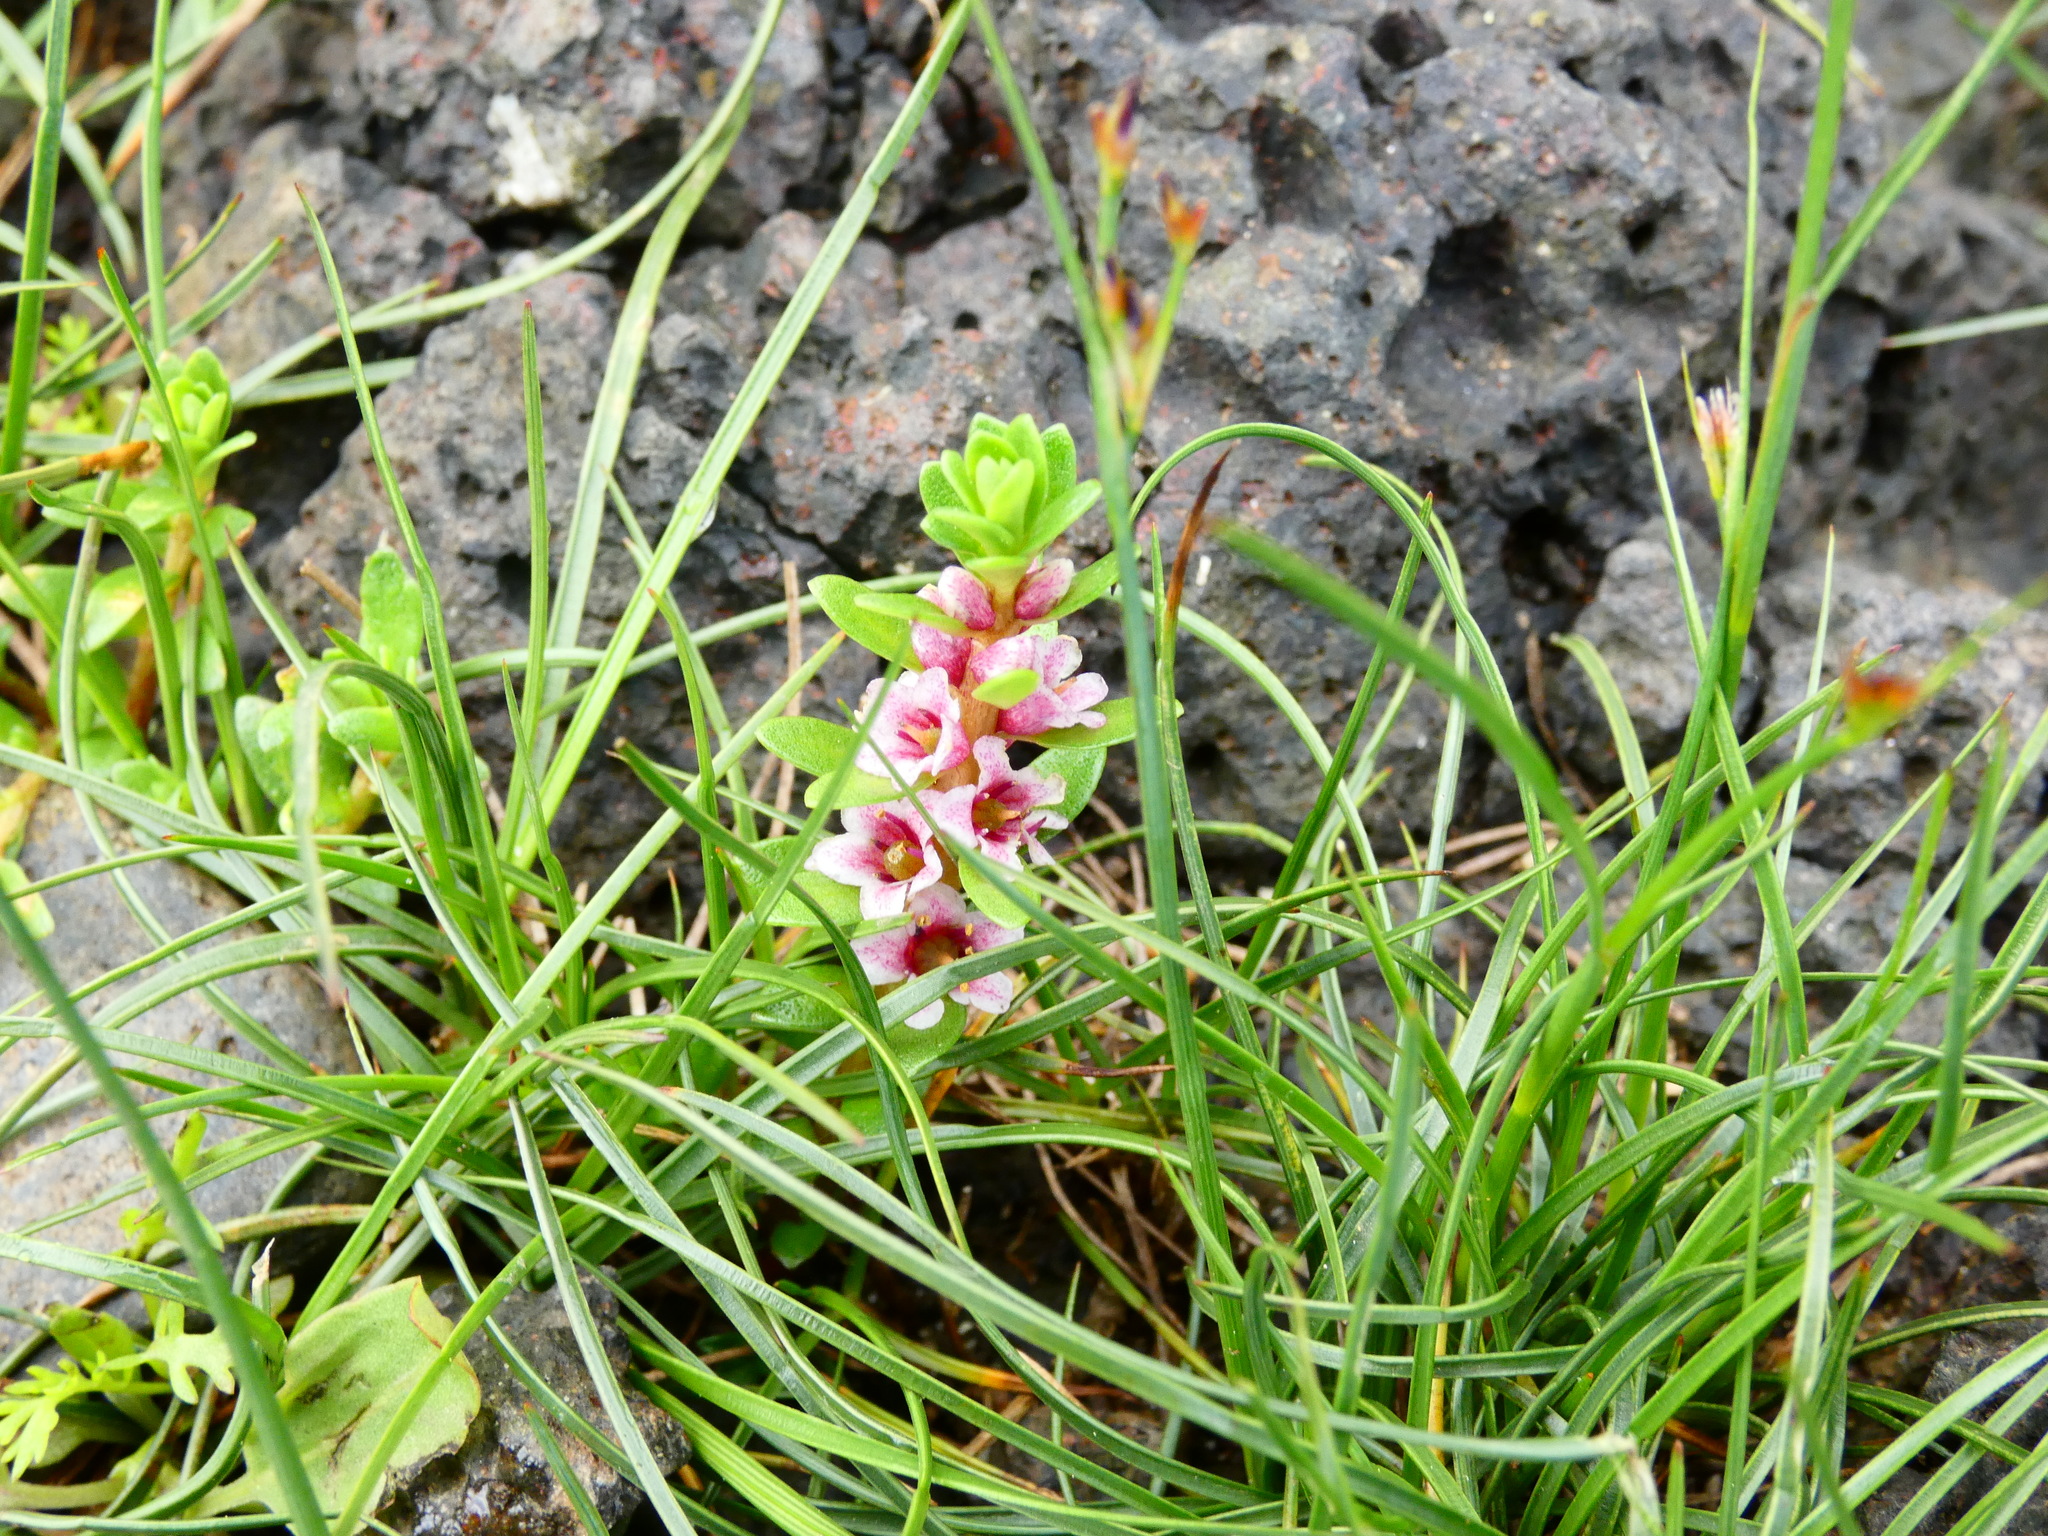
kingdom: Plantae
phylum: Tracheophyta
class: Magnoliopsida
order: Ericales
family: Primulaceae
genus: Lysimachia
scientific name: Lysimachia maritima
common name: Sea milkwort
